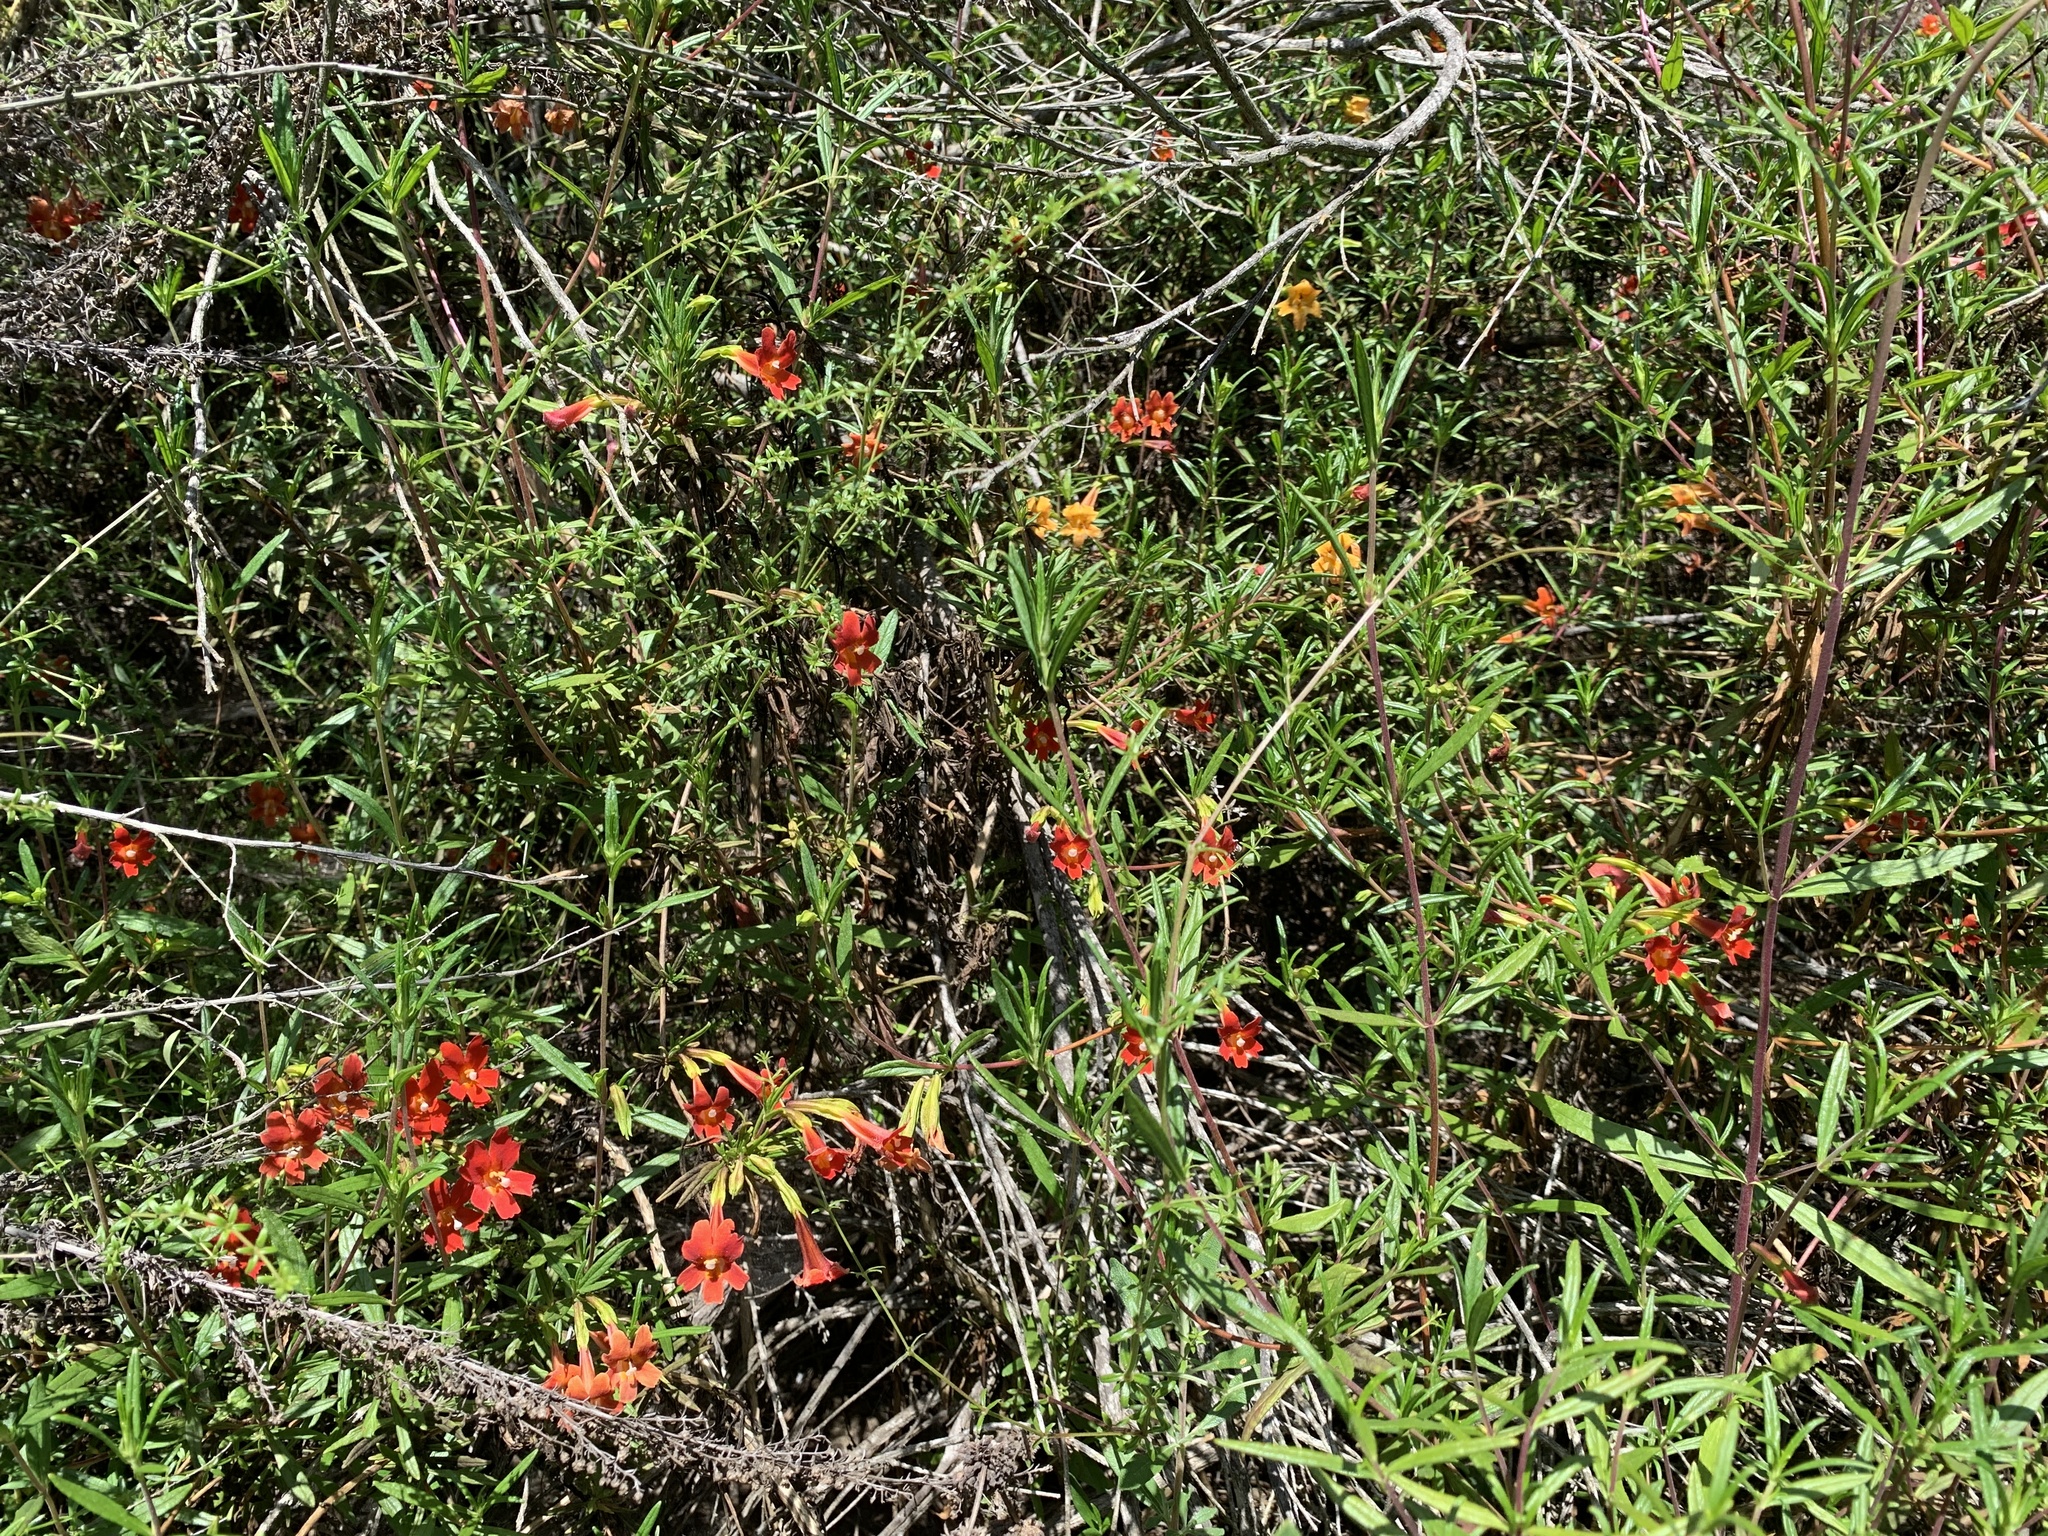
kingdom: Plantae
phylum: Tracheophyta
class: Magnoliopsida
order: Lamiales
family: Phrymaceae
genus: Diplacus
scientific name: Diplacus puniceus
